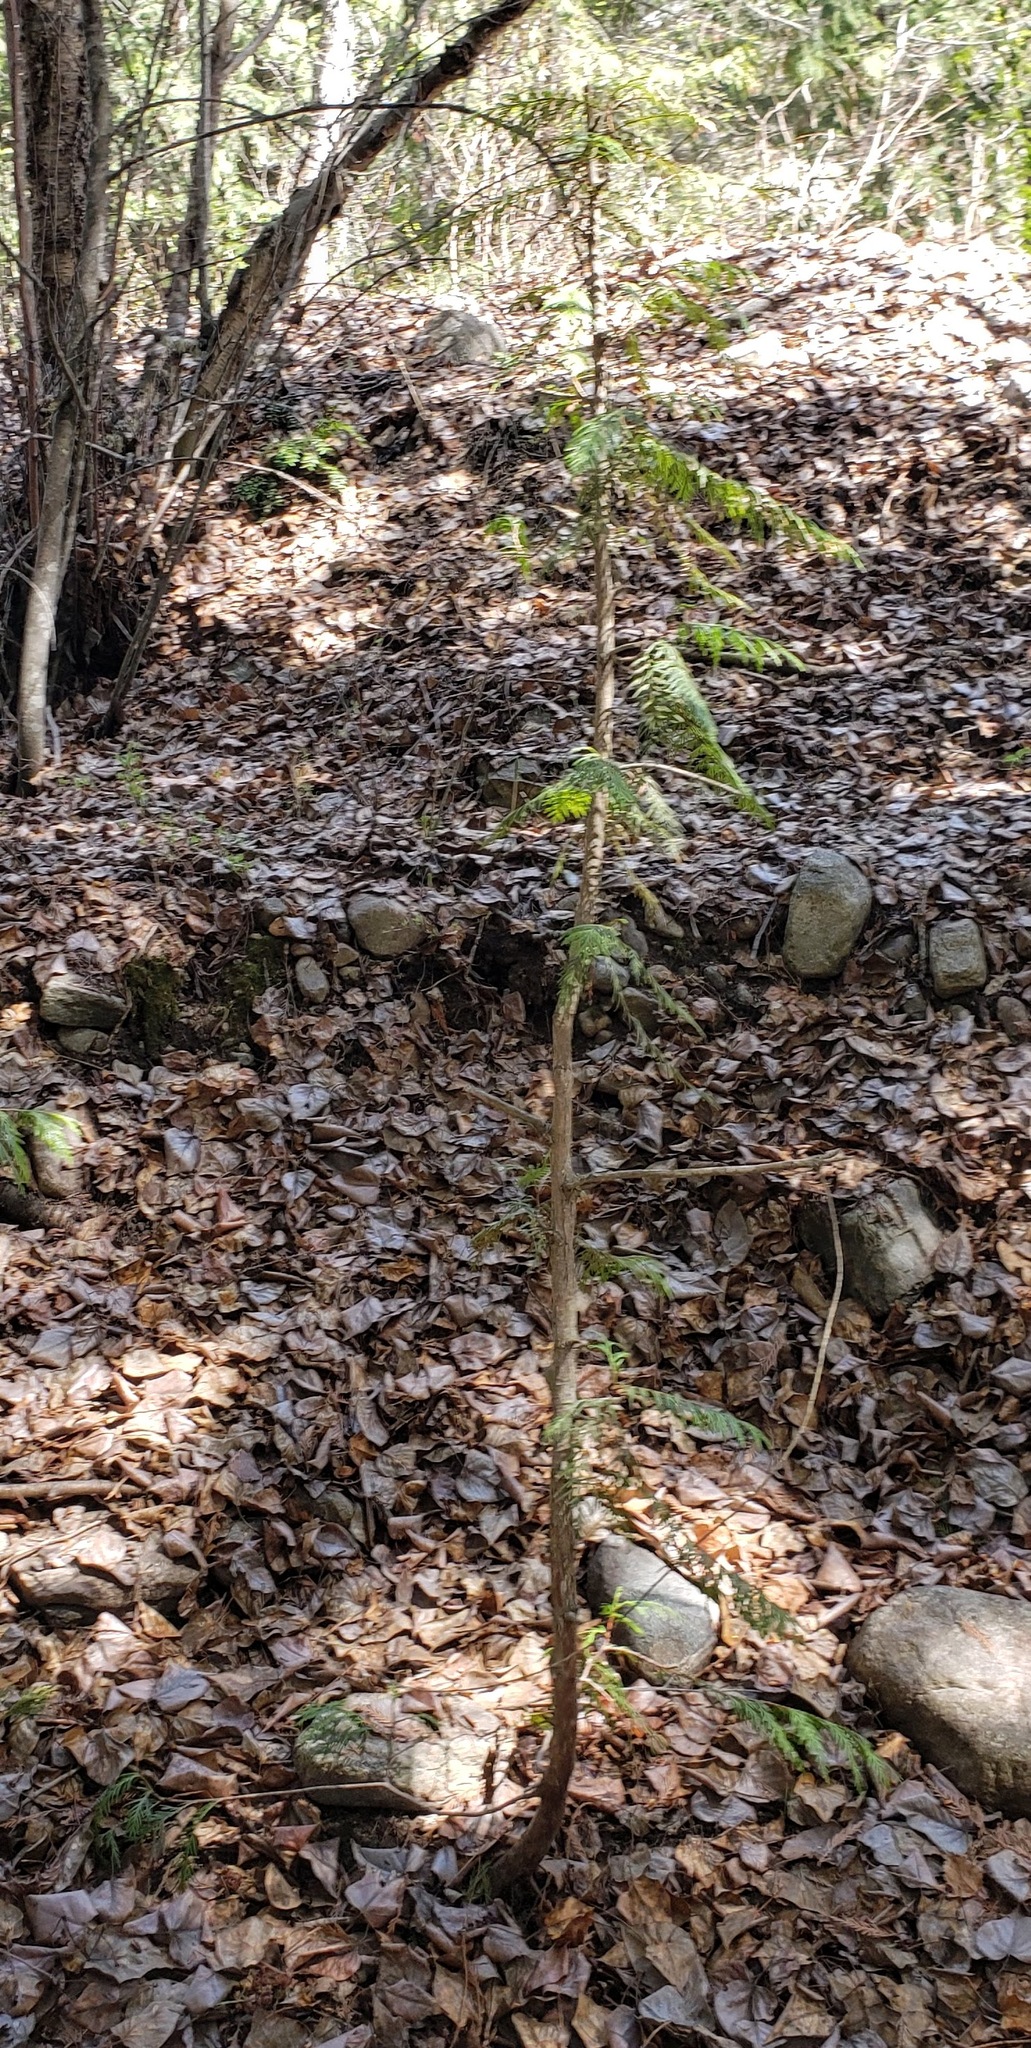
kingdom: Plantae
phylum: Tracheophyta
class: Pinopsida
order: Pinales
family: Cupressaceae
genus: Thuja
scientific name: Thuja plicata
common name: Western red-cedar
